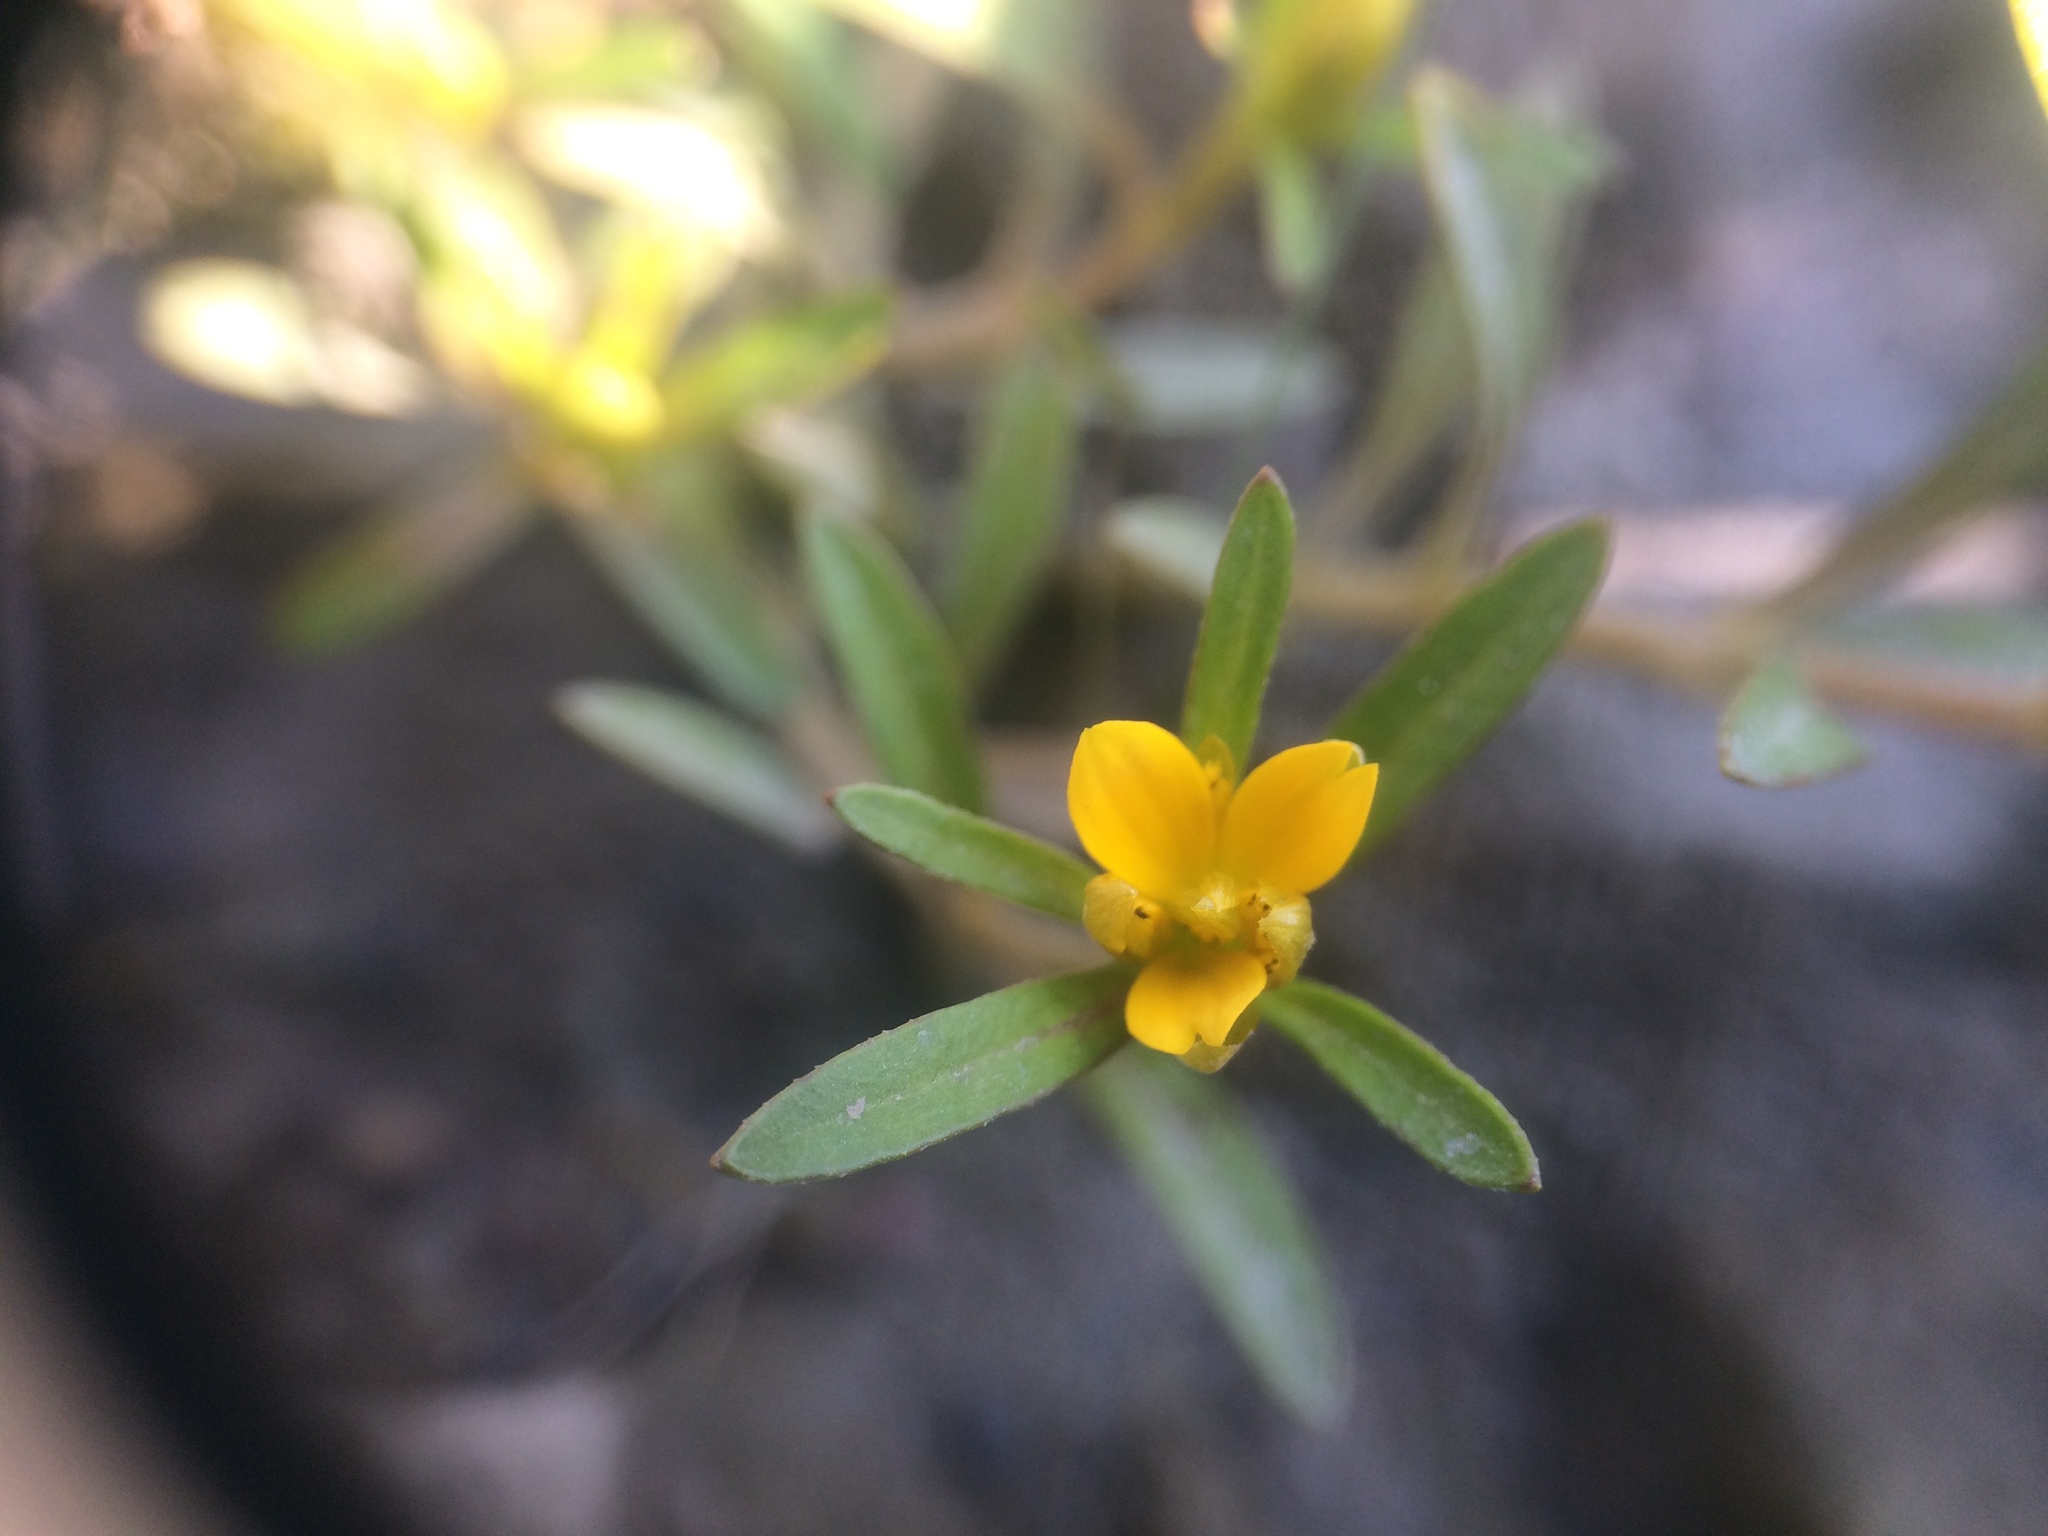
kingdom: Plantae
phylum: Tracheophyta
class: Magnoliopsida
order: Asterales
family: Asteraceae
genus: Bidens
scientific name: Bidens hyperborea
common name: Coastal beggarticks
